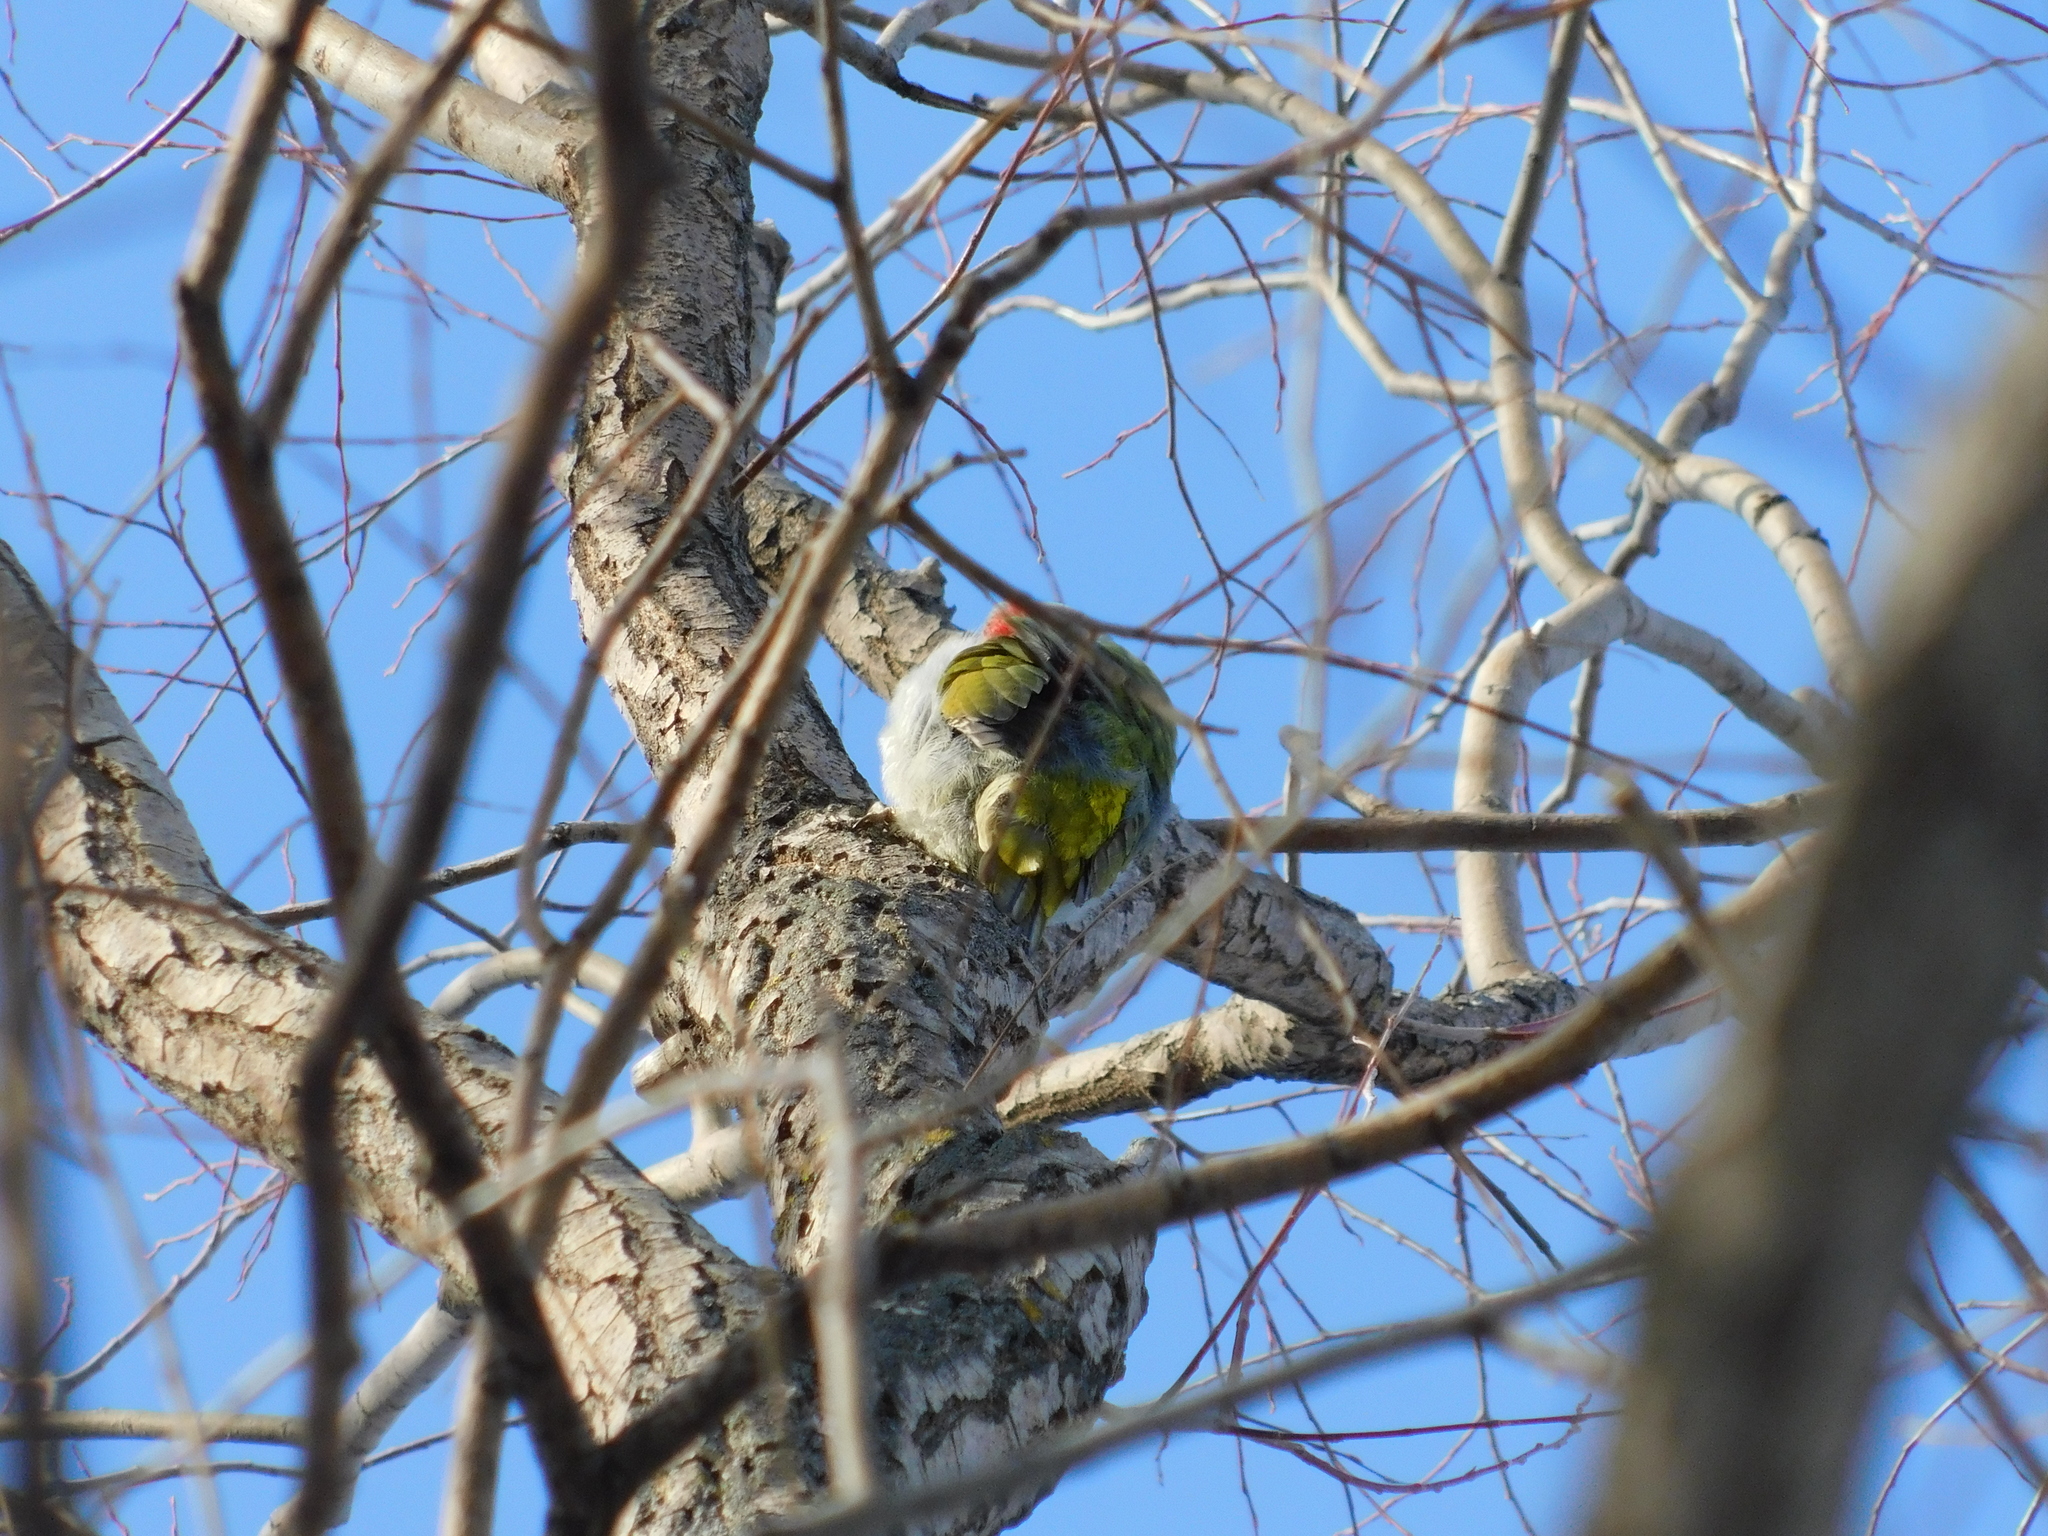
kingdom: Animalia
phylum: Chordata
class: Aves
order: Piciformes
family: Picidae
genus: Picus
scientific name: Picus canus
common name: Grey-headed woodpecker
